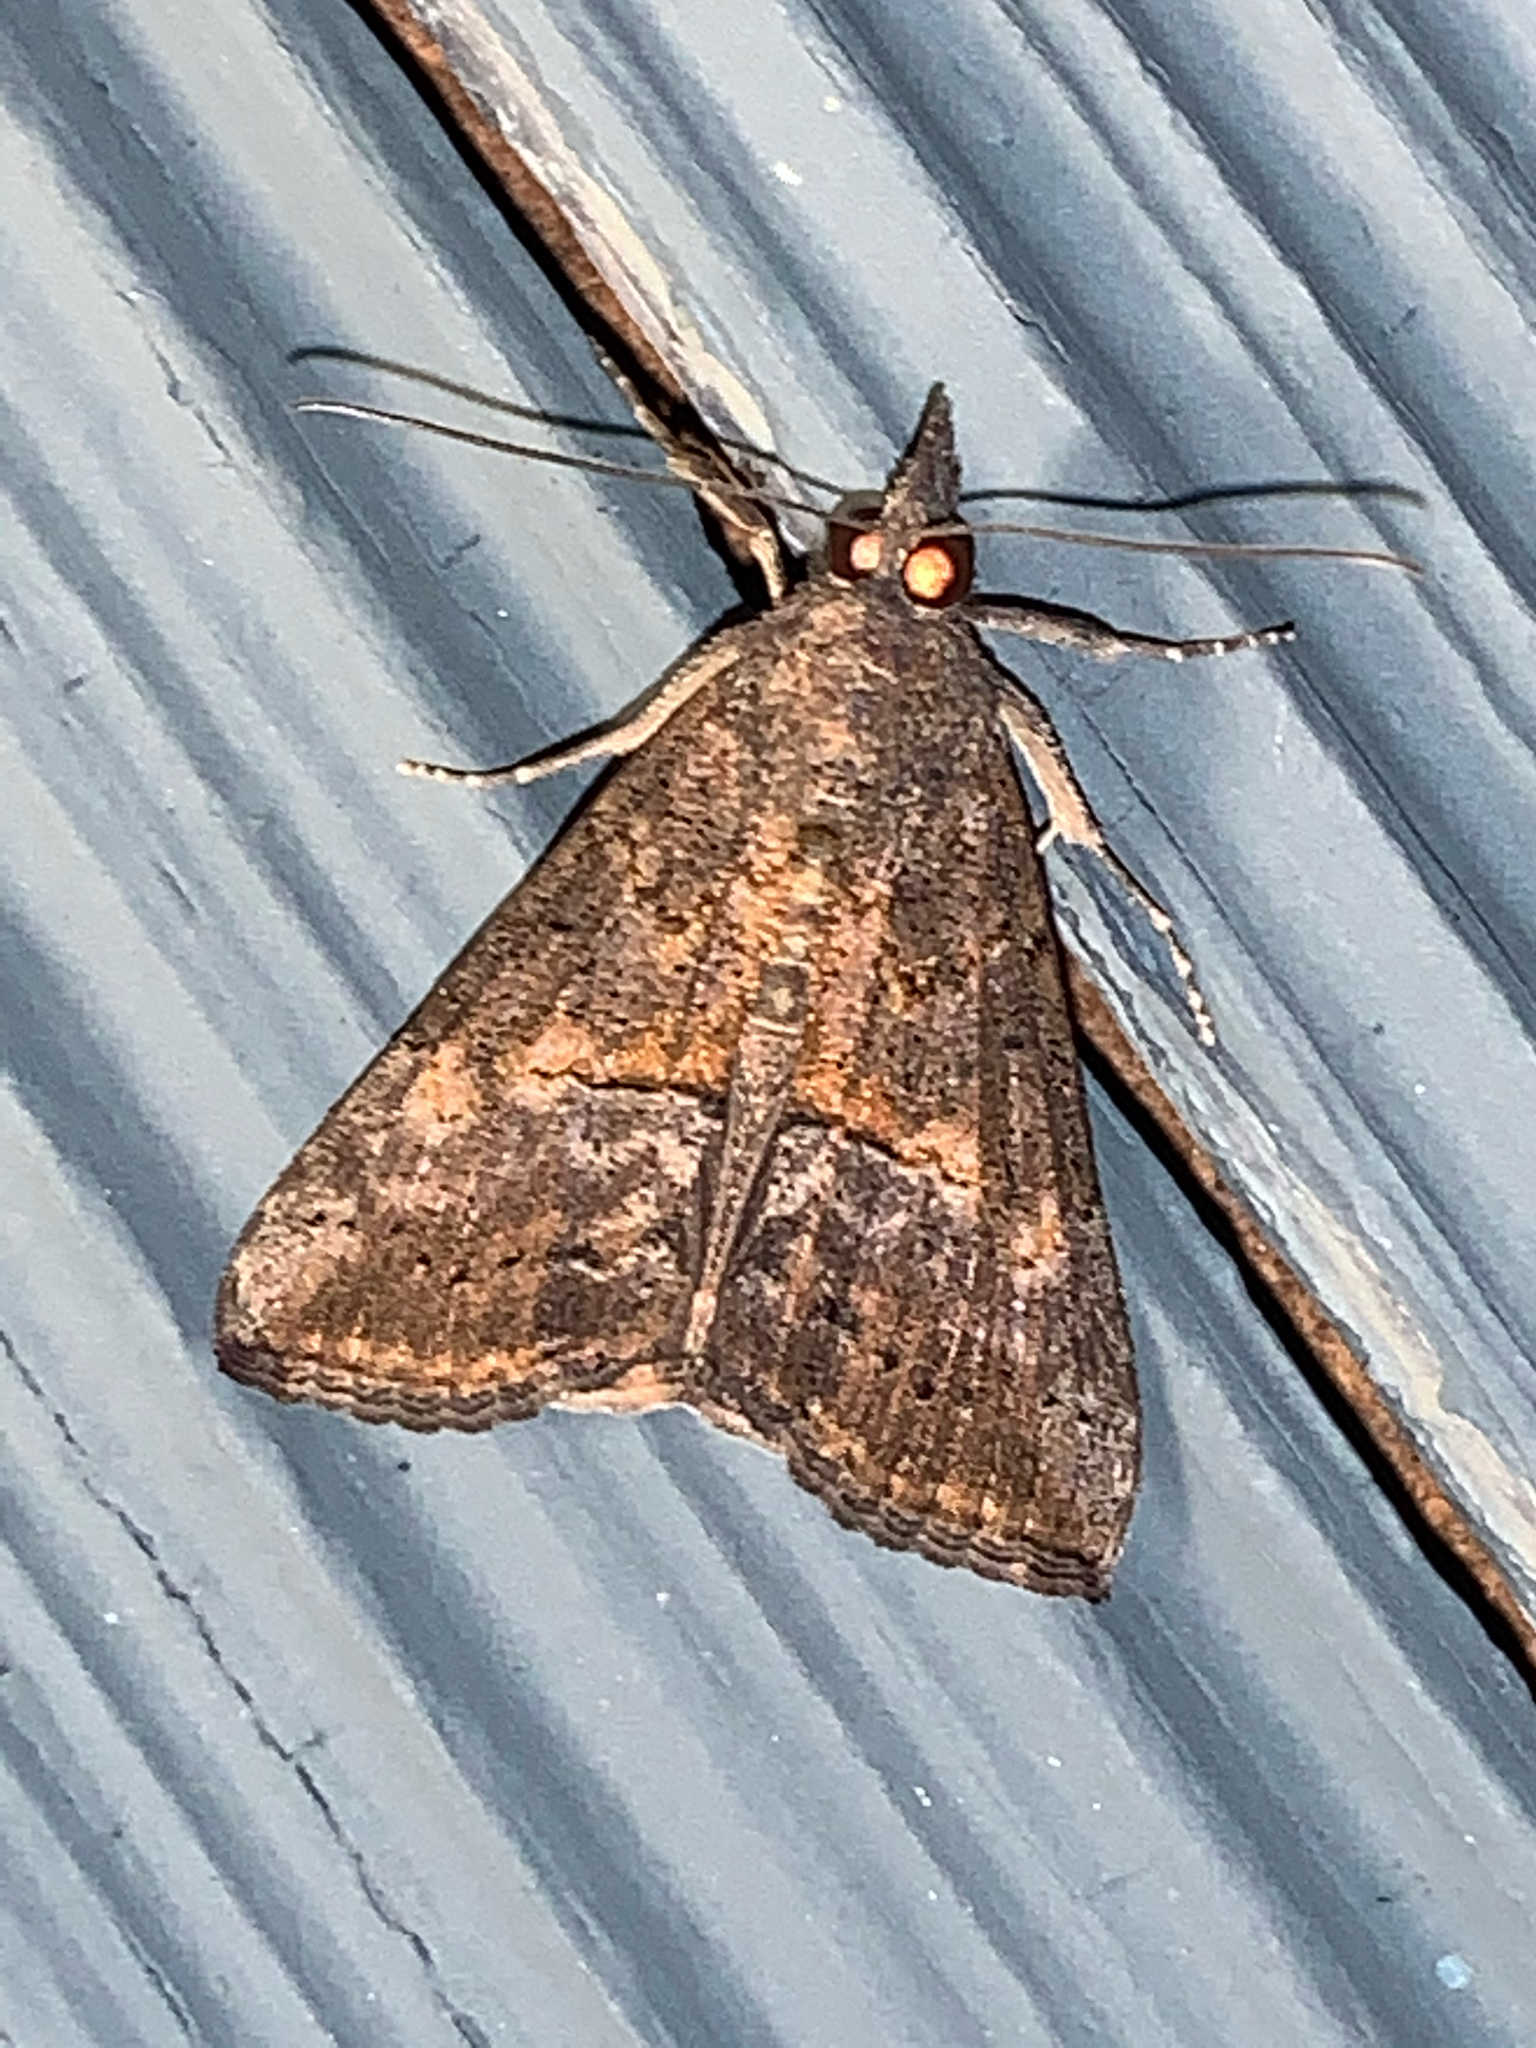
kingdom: Animalia
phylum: Arthropoda
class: Insecta
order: Lepidoptera
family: Erebidae
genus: Hypena
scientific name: Hypena scabra
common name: Green cloverworm
